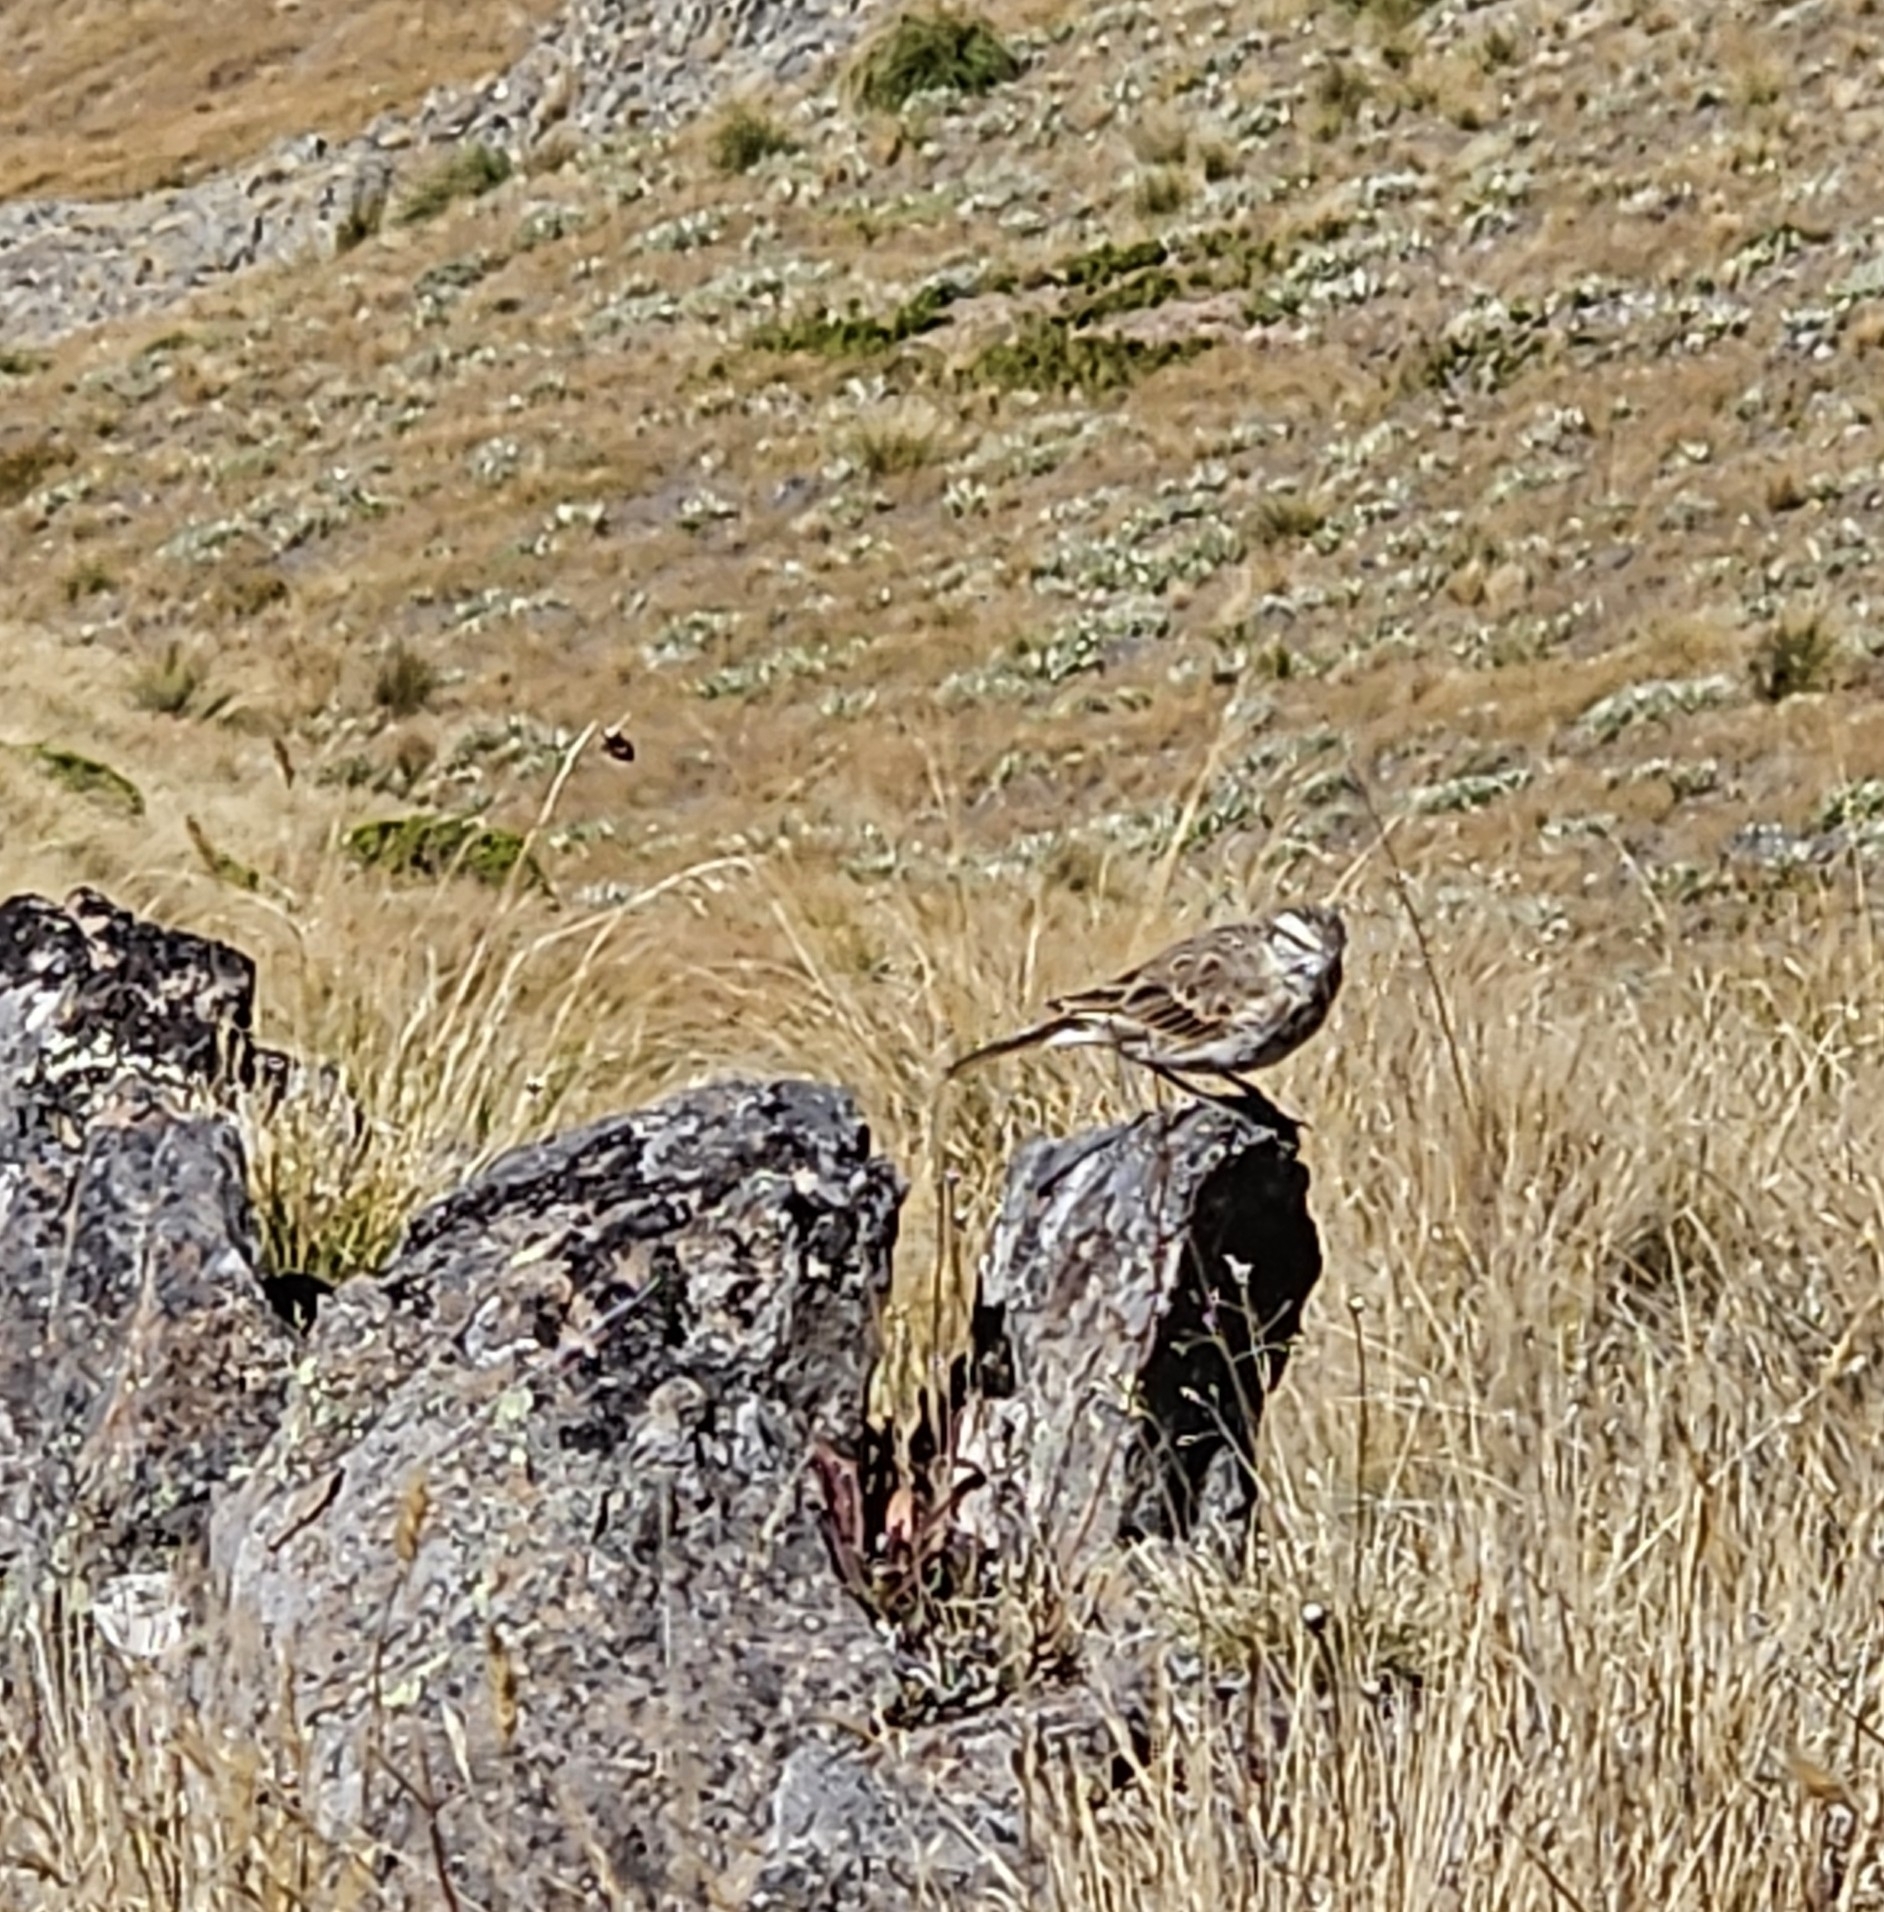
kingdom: Animalia
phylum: Chordata
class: Aves
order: Passeriformes
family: Motacillidae
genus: Anthus
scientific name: Anthus novaeseelandiae
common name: New zealand pipit
